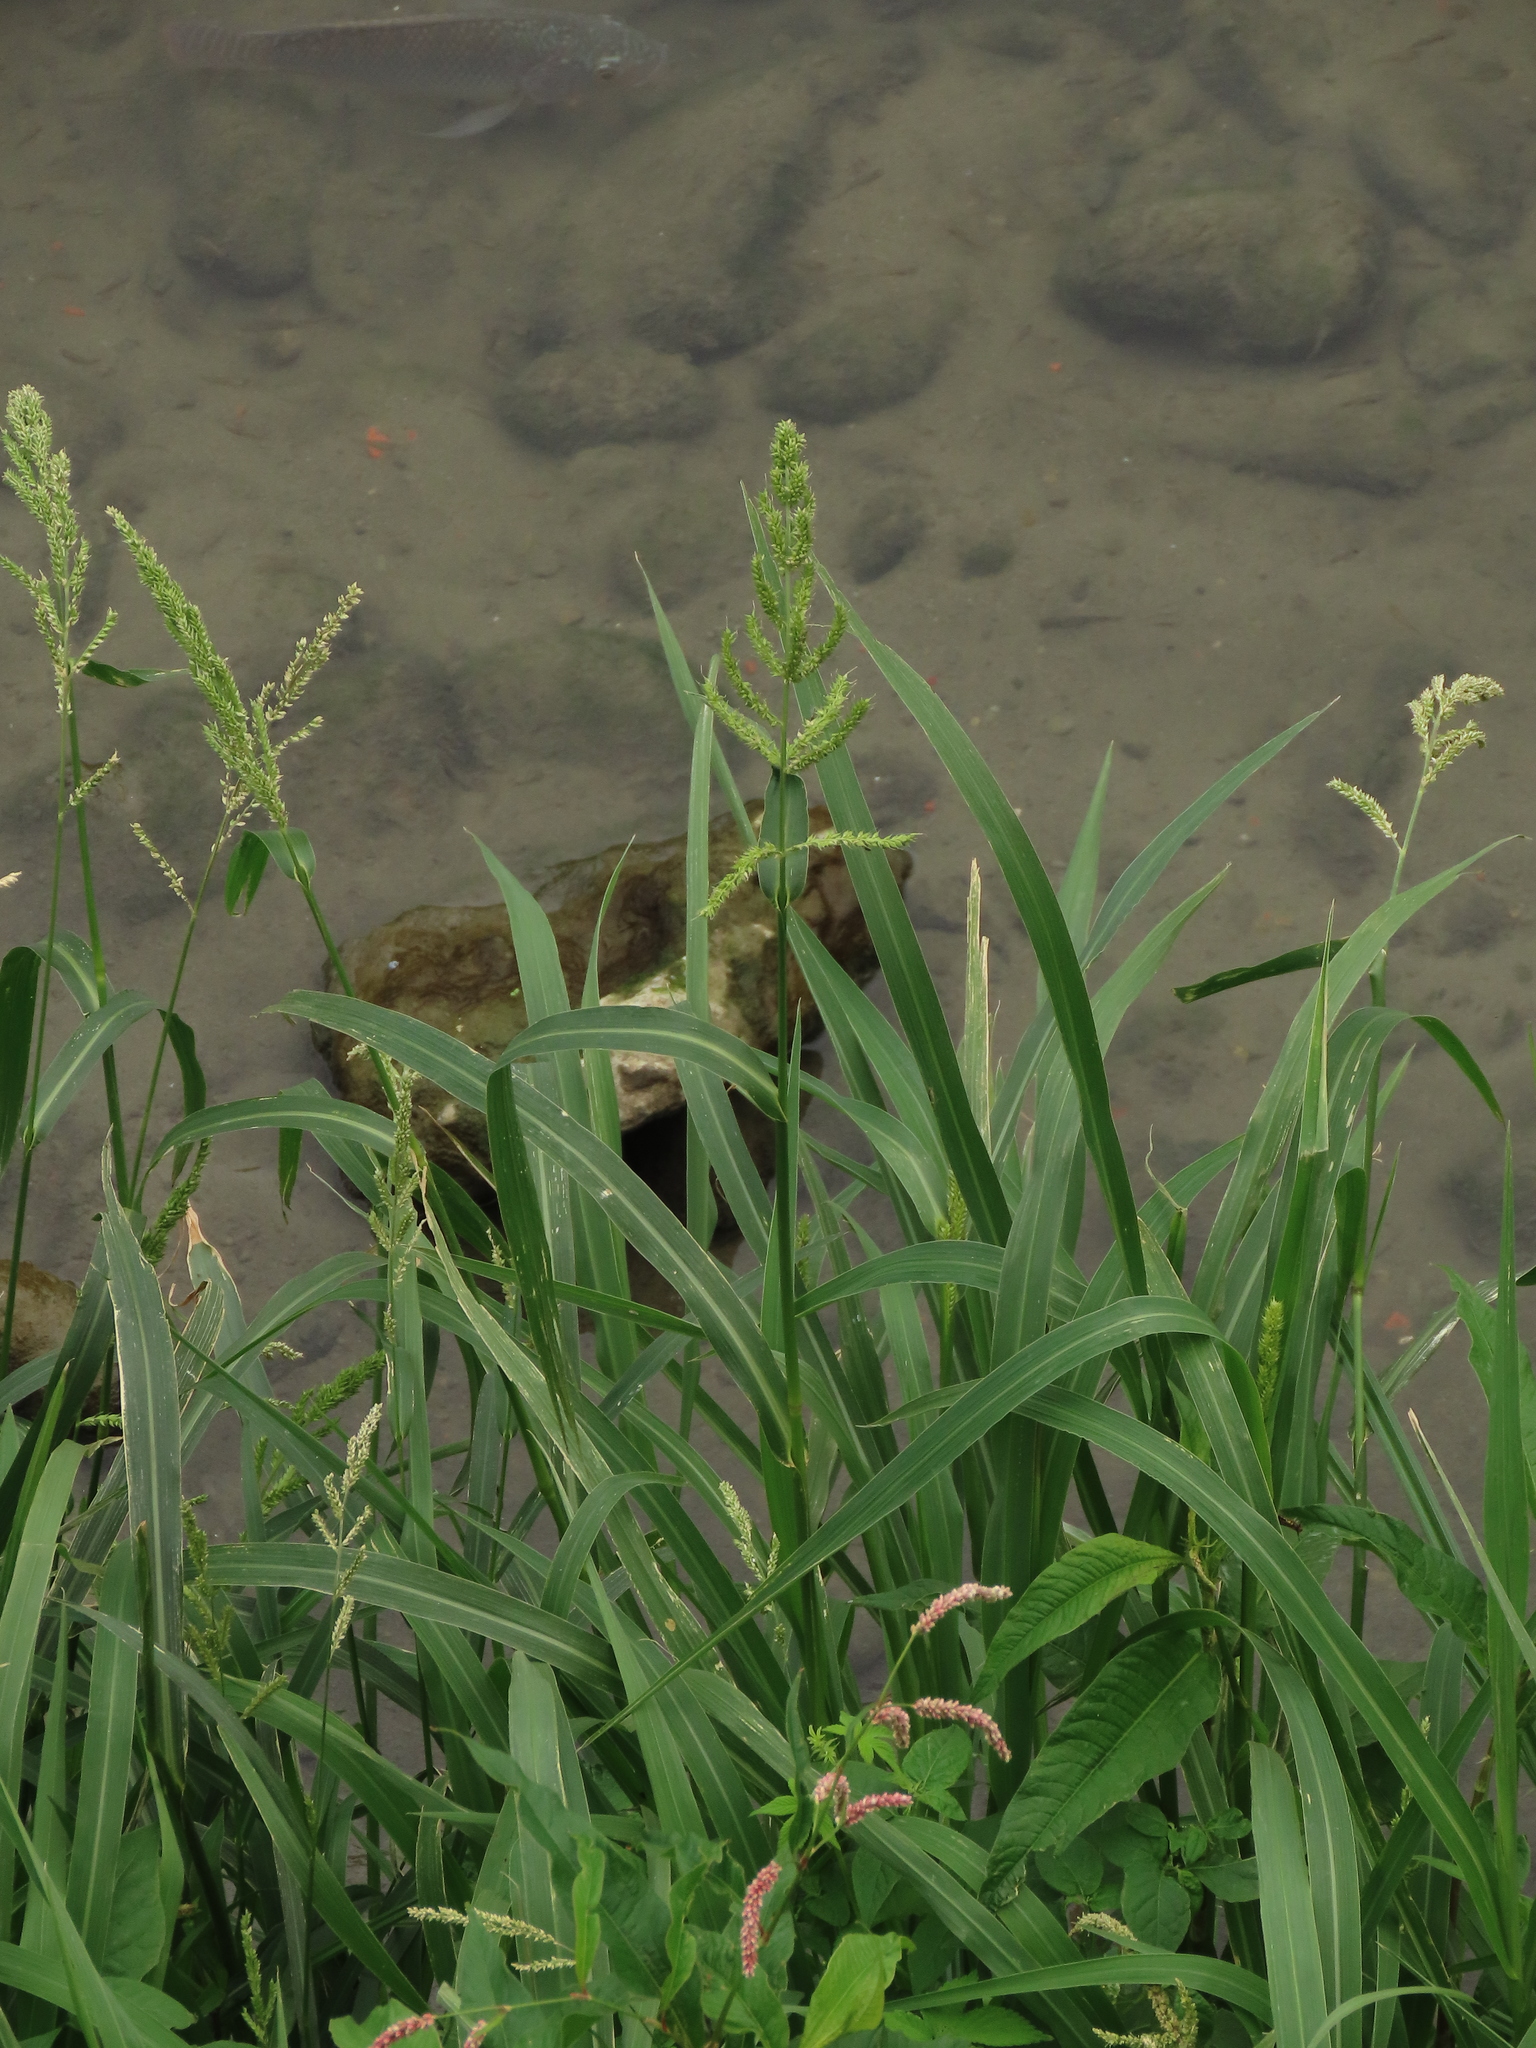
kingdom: Plantae
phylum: Tracheophyta
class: Liliopsida
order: Poales
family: Poaceae
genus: Echinochloa
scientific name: Echinochloa crus-galli
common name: Cockspur
